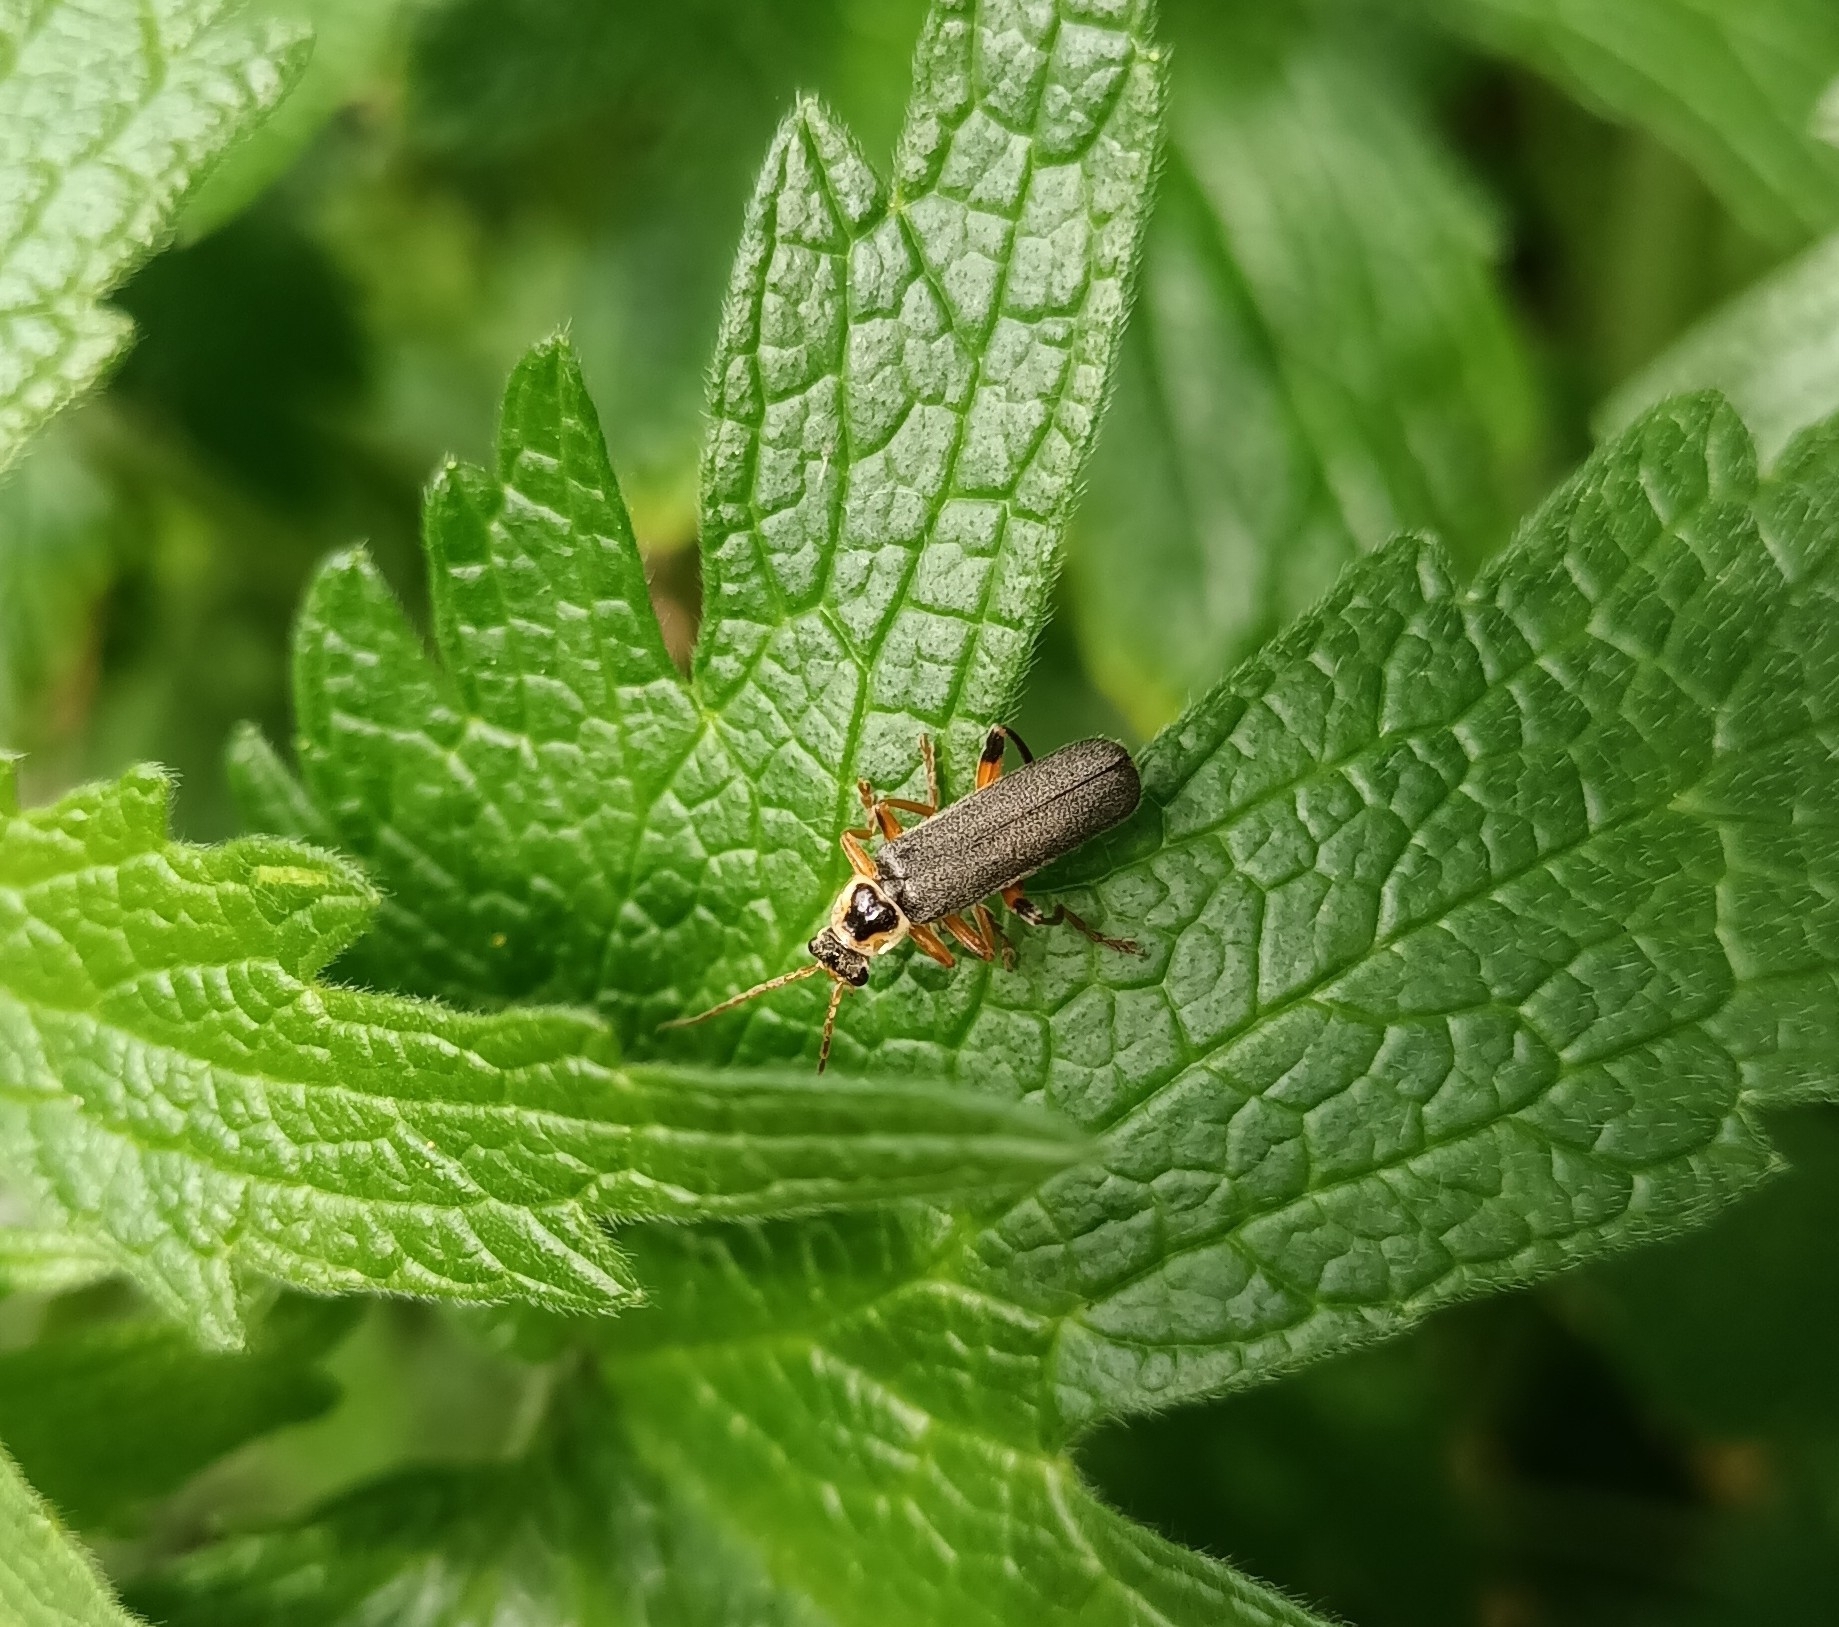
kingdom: Animalia
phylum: Arthropoda
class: Insecta
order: Coleoptera
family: Cantharidae
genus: Cantharis
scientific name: Cantharis nigricans
